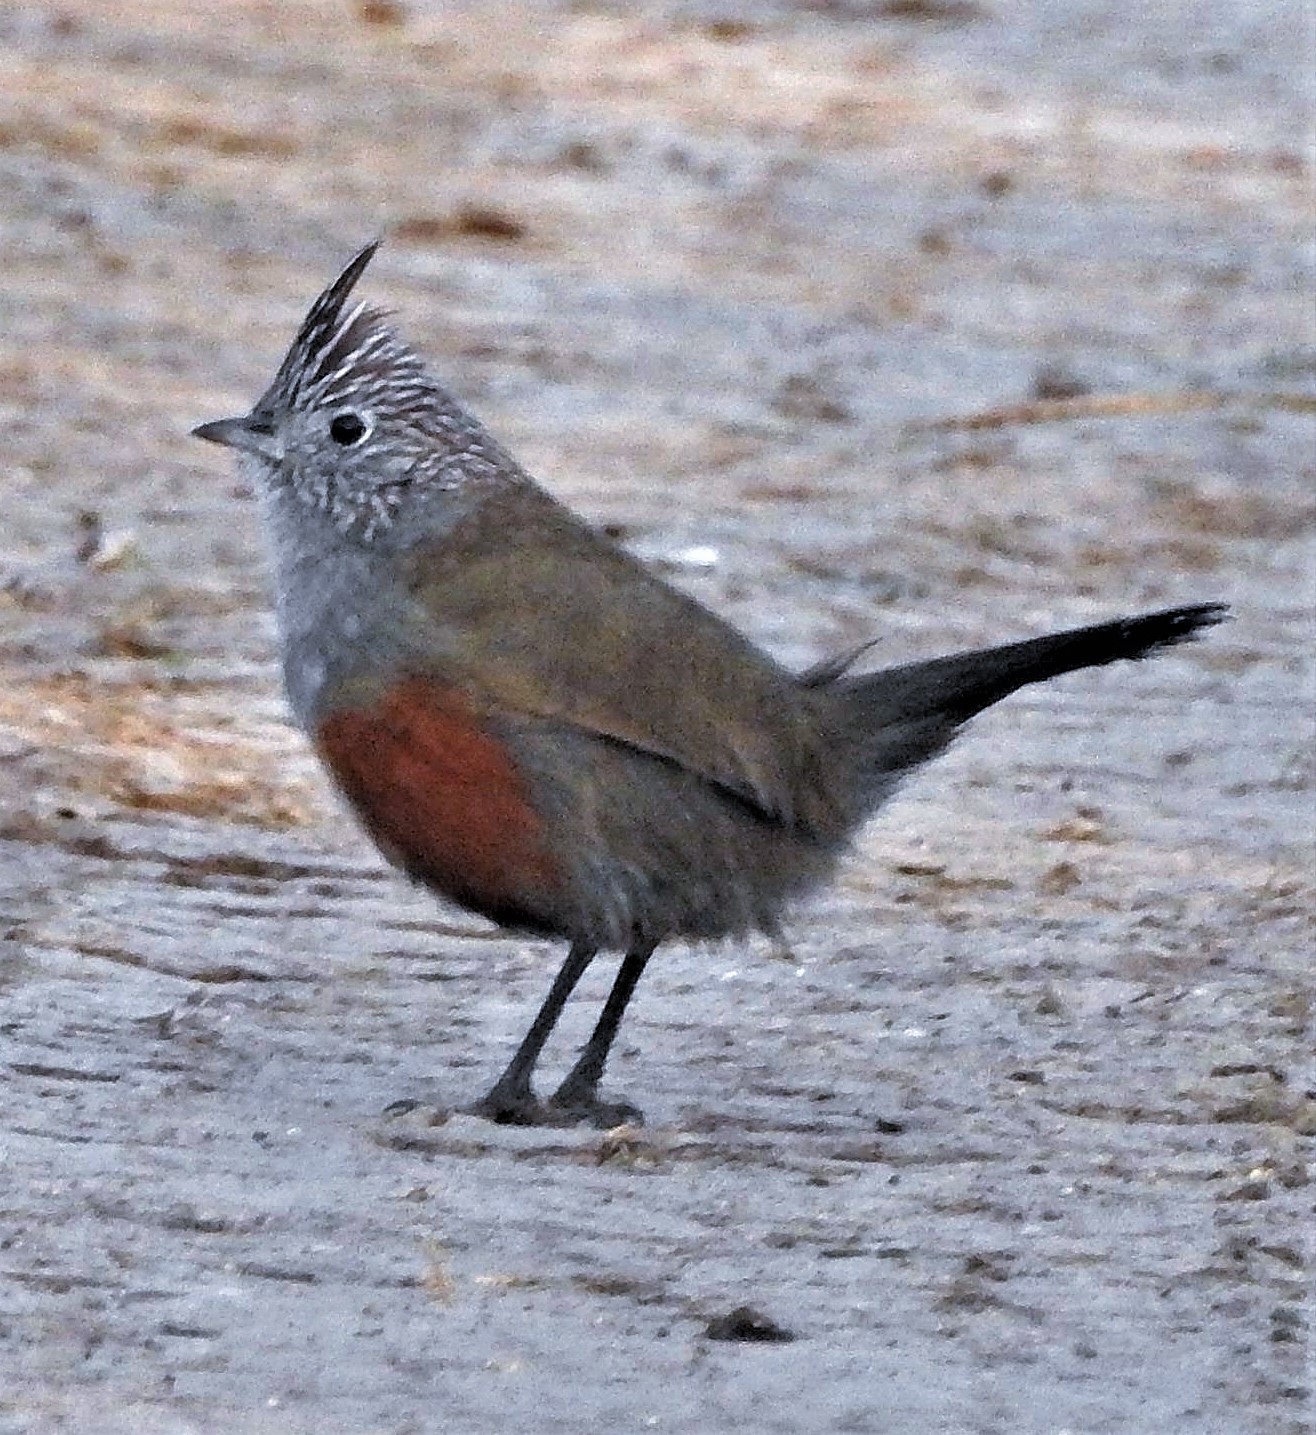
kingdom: Animalia
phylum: Chordata
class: Aves
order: Passeriformes
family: Rhinocryptidae
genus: Rhinocrypta
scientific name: Rhinocrypta lanceolata
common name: Crested gallito
